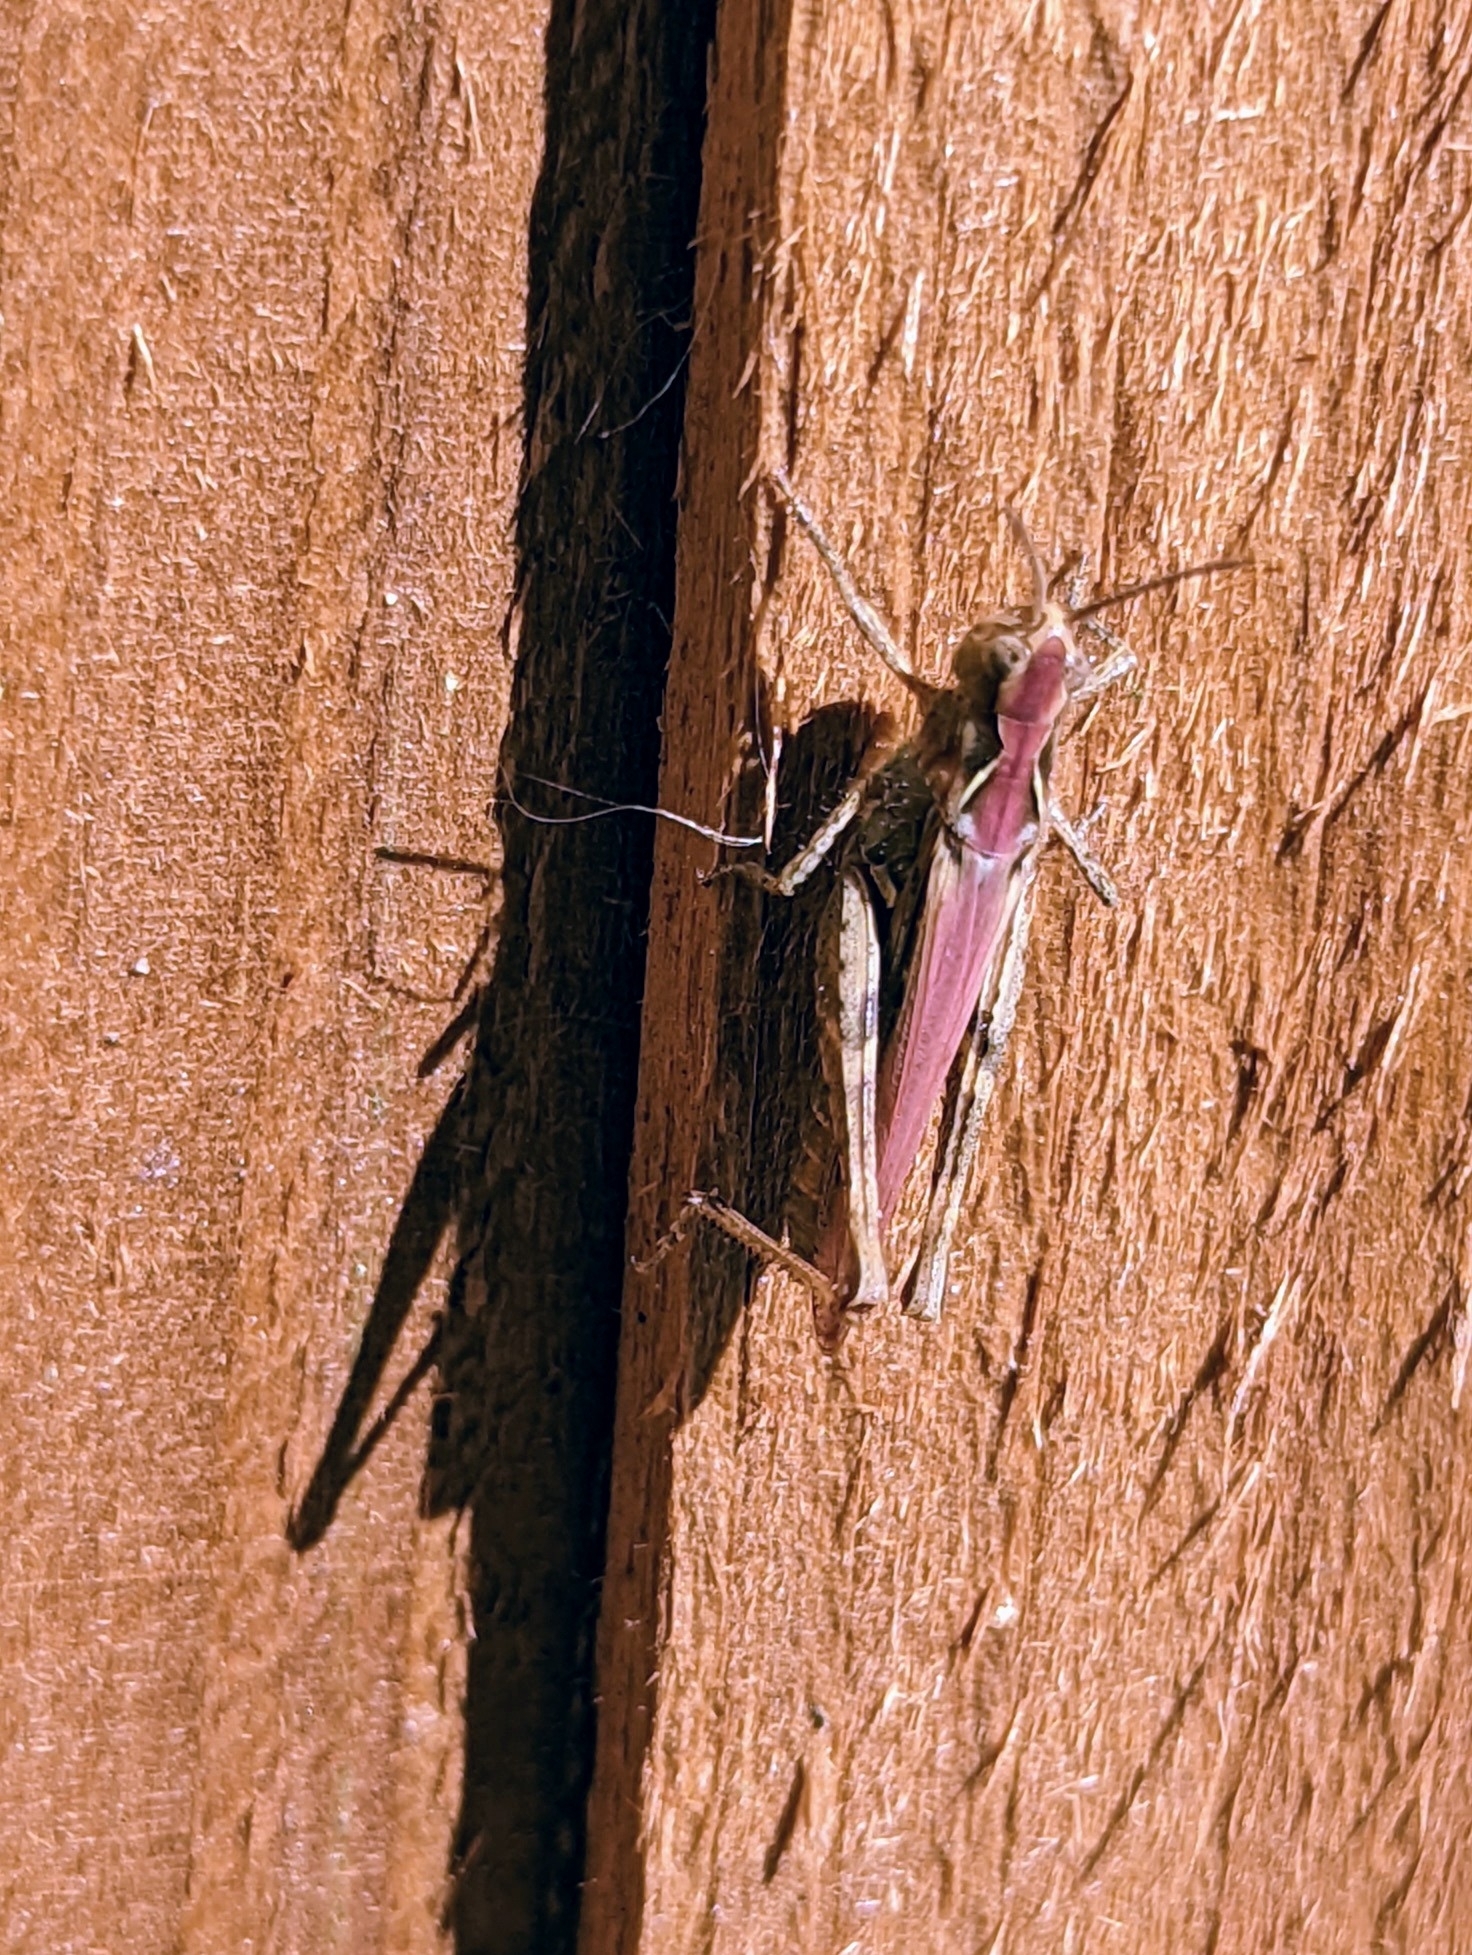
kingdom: Animalia
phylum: Arthropoda
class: Insecta
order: Orthoptera
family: Acrididae
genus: Chorthippus
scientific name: Chorthippus brunneus
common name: Field grasshopper
